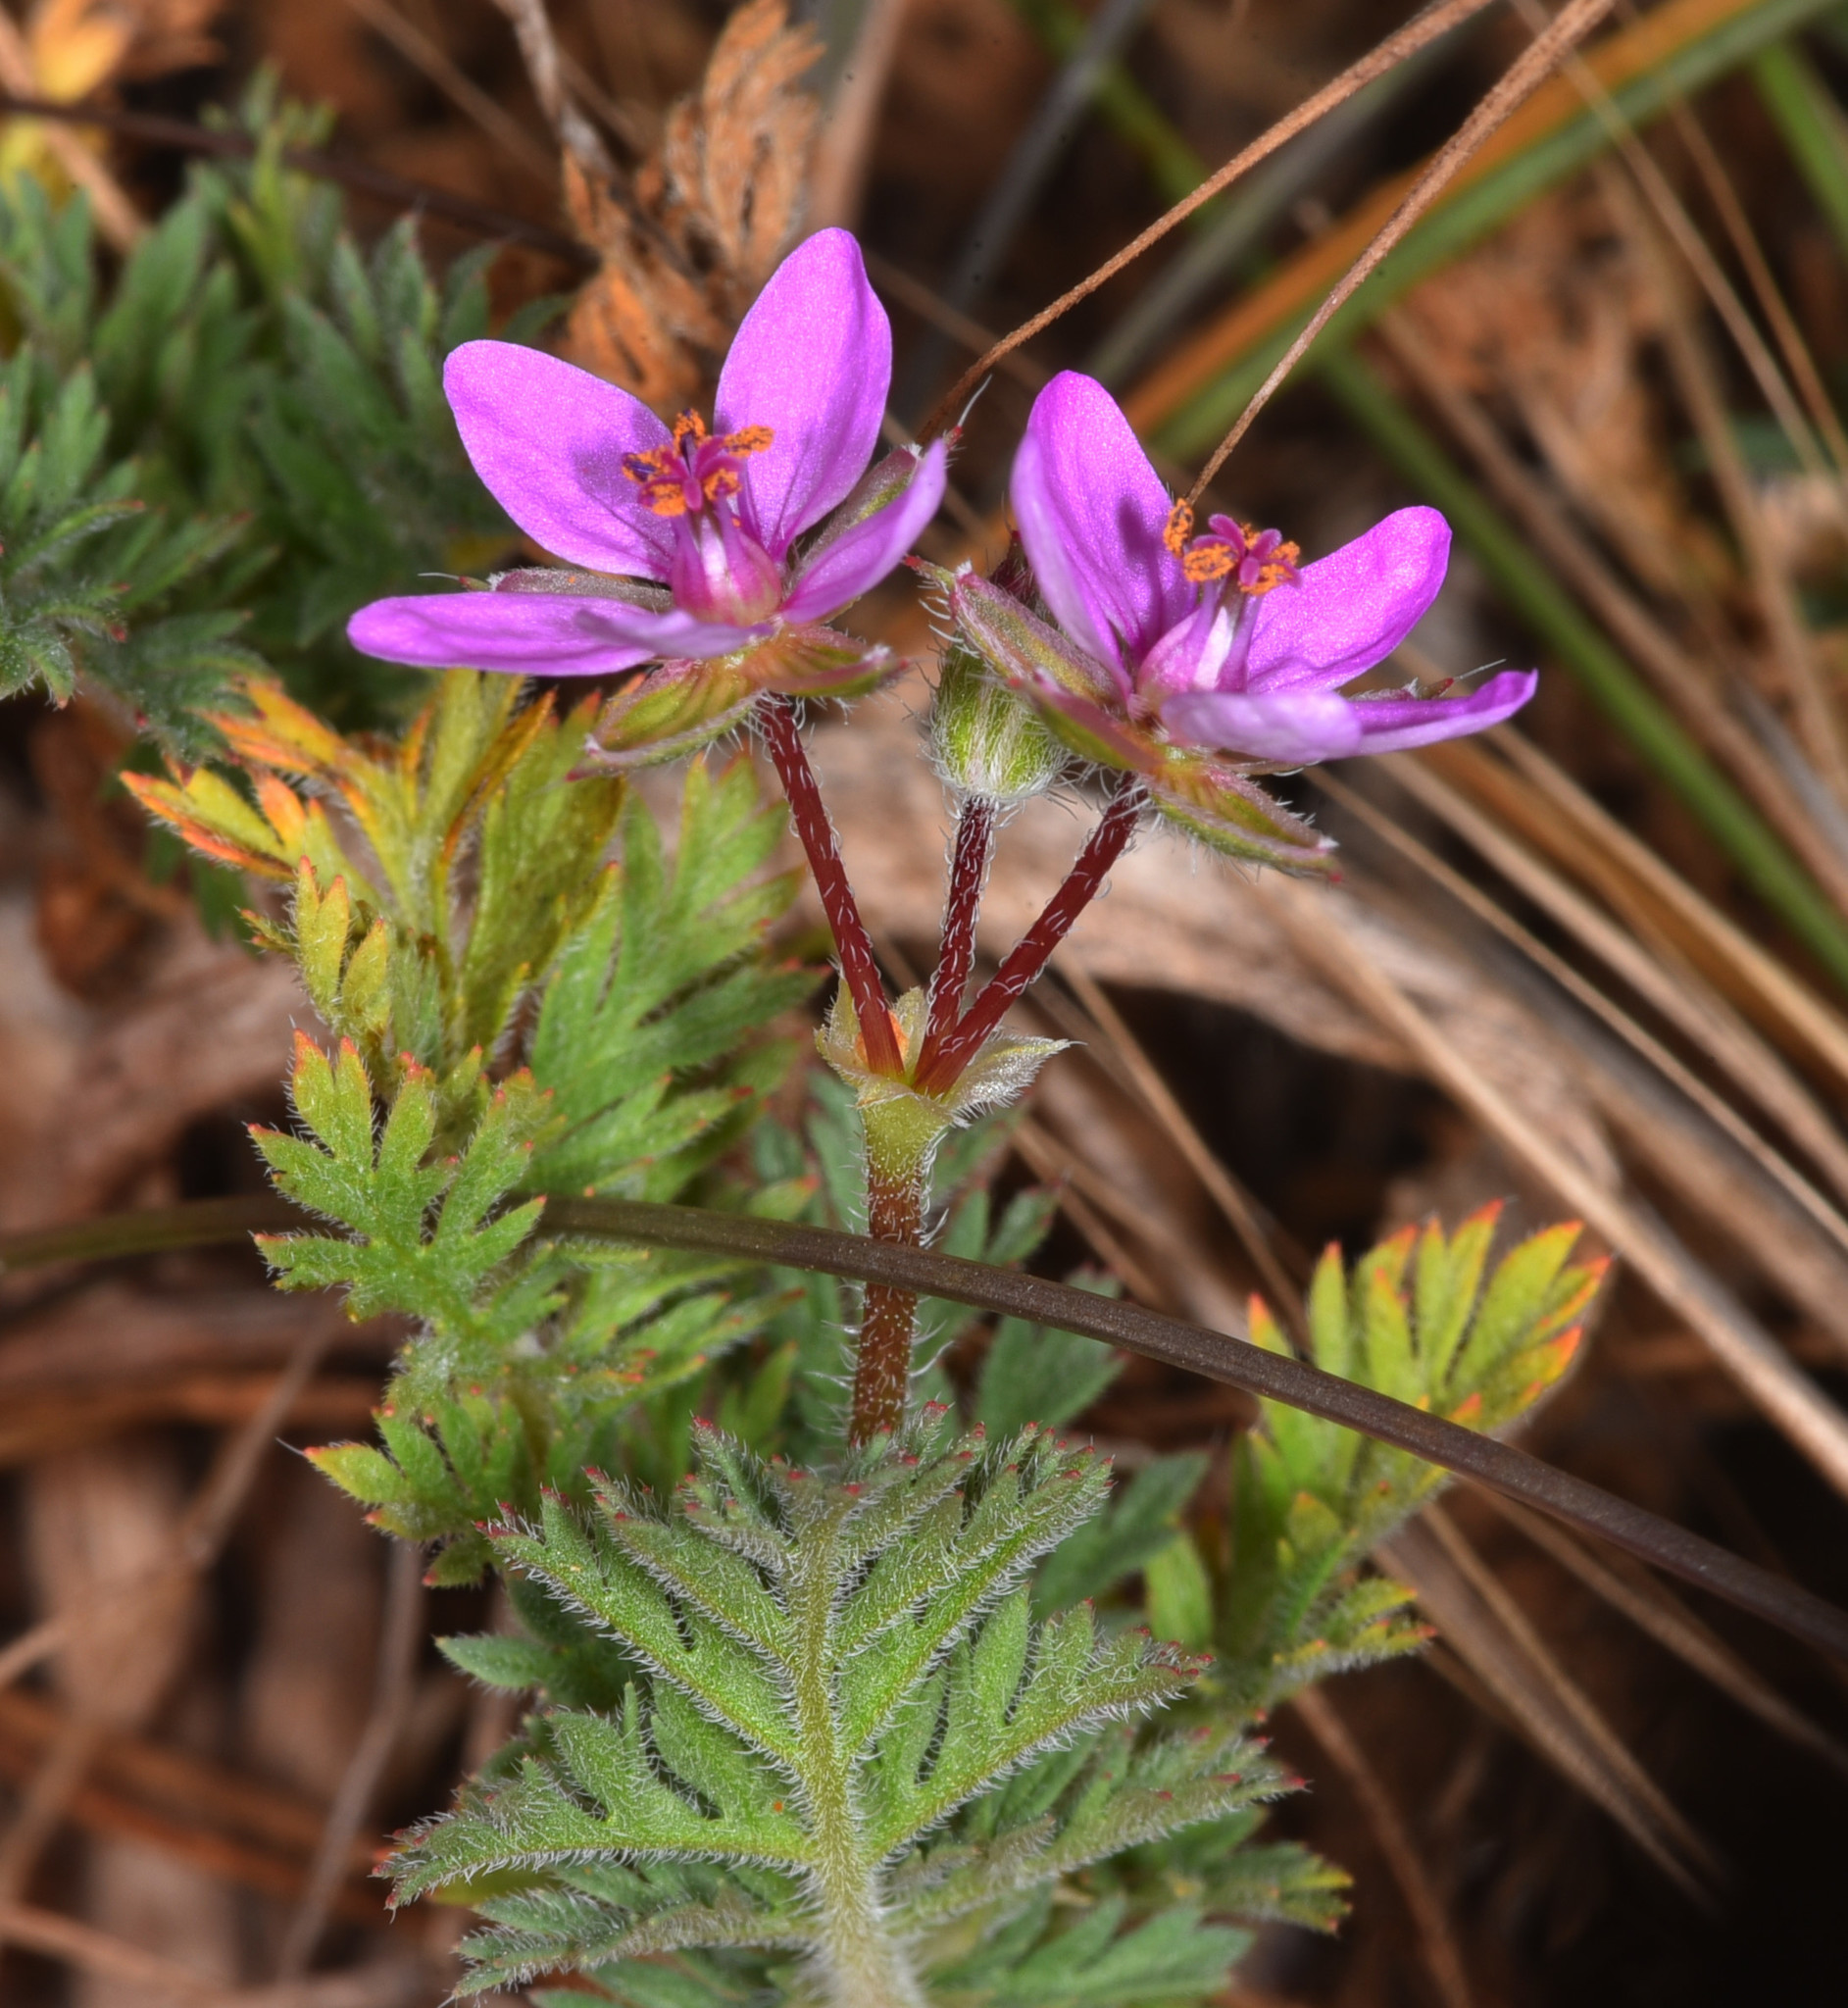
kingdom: Plantae
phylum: Tracheophyta
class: Magnoliopsida
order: Geraniales
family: Geraniaceae
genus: Erodium
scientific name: Erodium cicutarium
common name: Common stork's-bill
